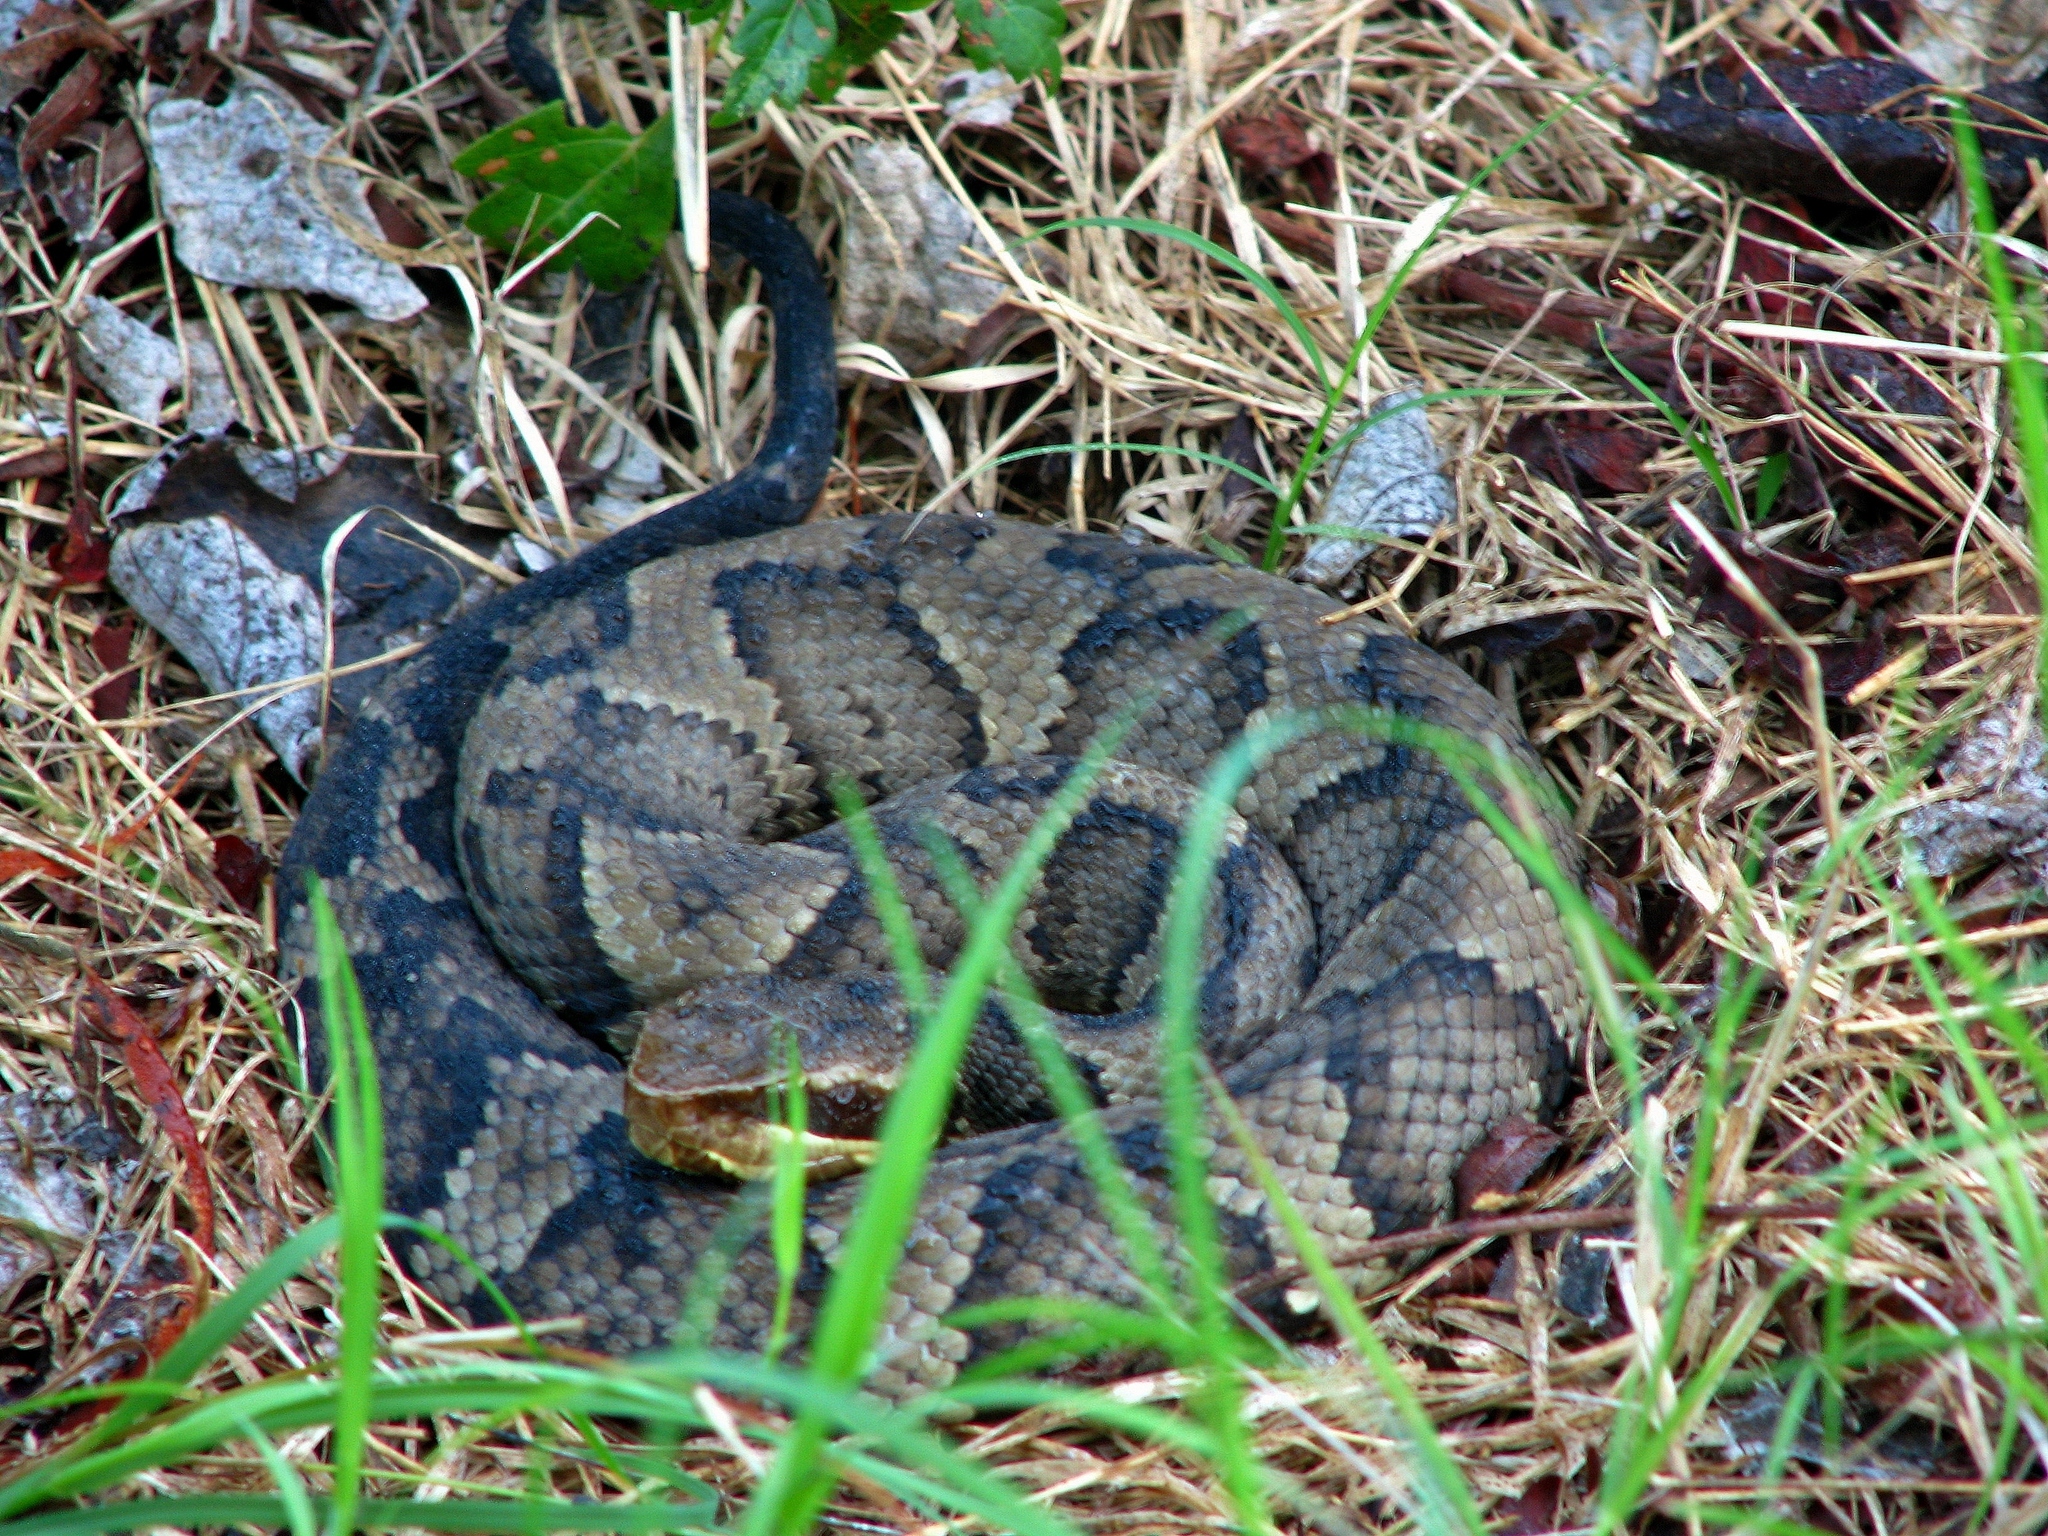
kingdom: Animalia
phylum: Chordata
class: Squamata
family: Viperidae
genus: Agkistrodon
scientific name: Agkistrodon piscivorus
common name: Cottonmouth
